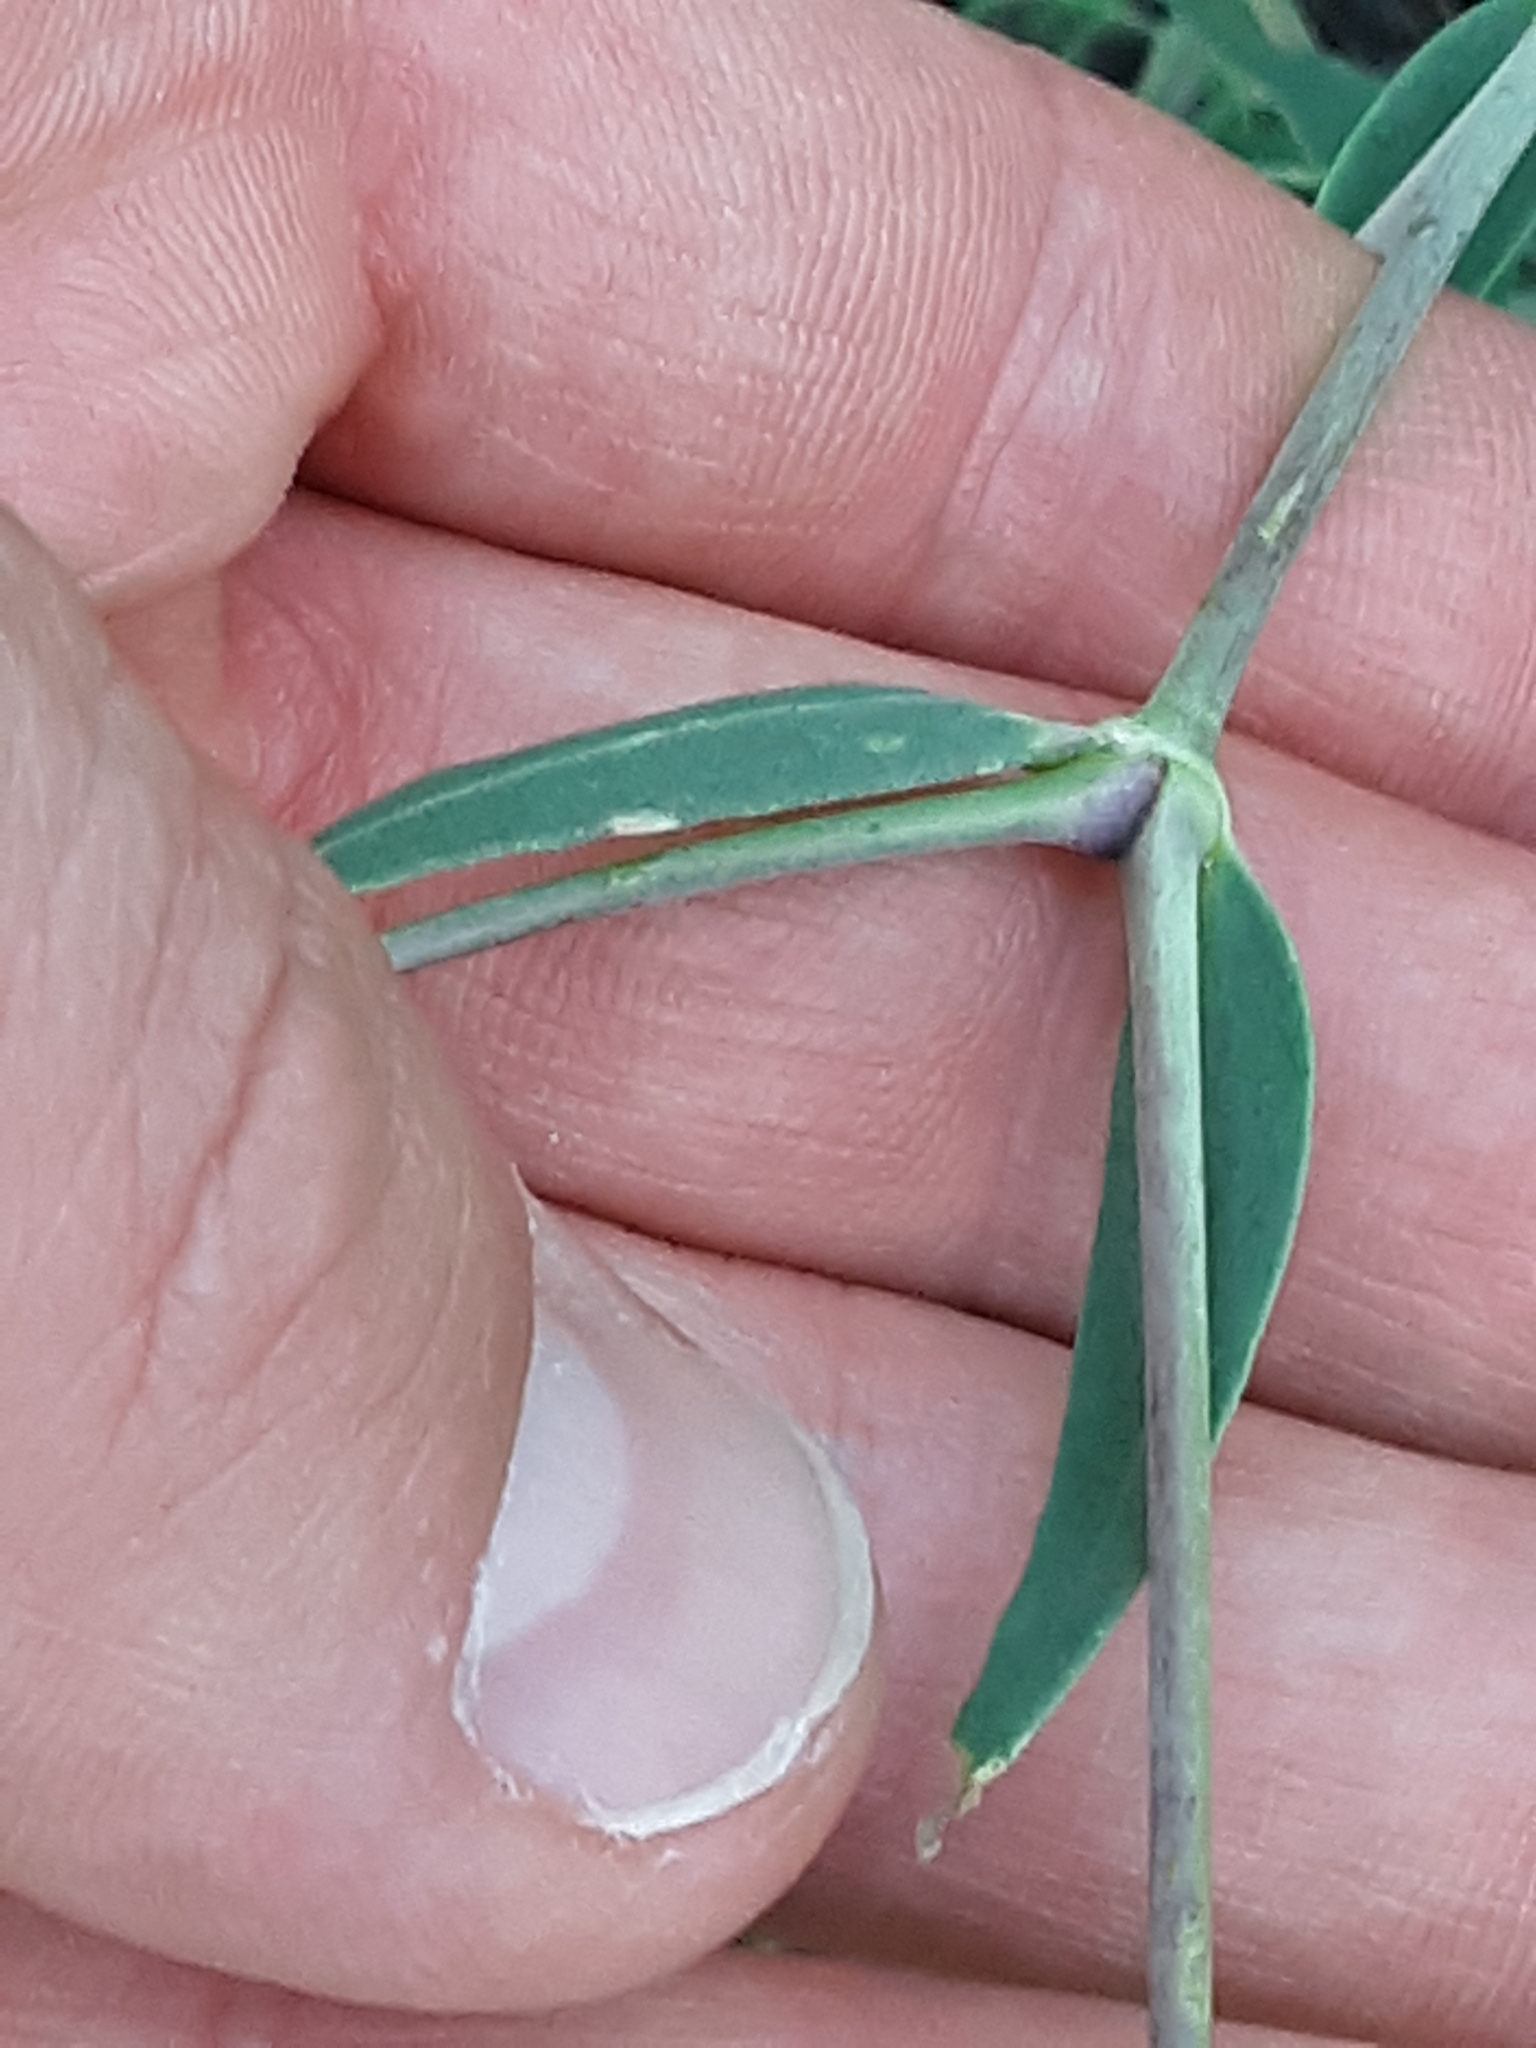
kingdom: Plantae
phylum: Tracheophyta
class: Magnoliopsida
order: Caryophyllales
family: Caryophyllaceae
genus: Gypsophila
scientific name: Gypsophila paniculata
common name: Baby's-breath
